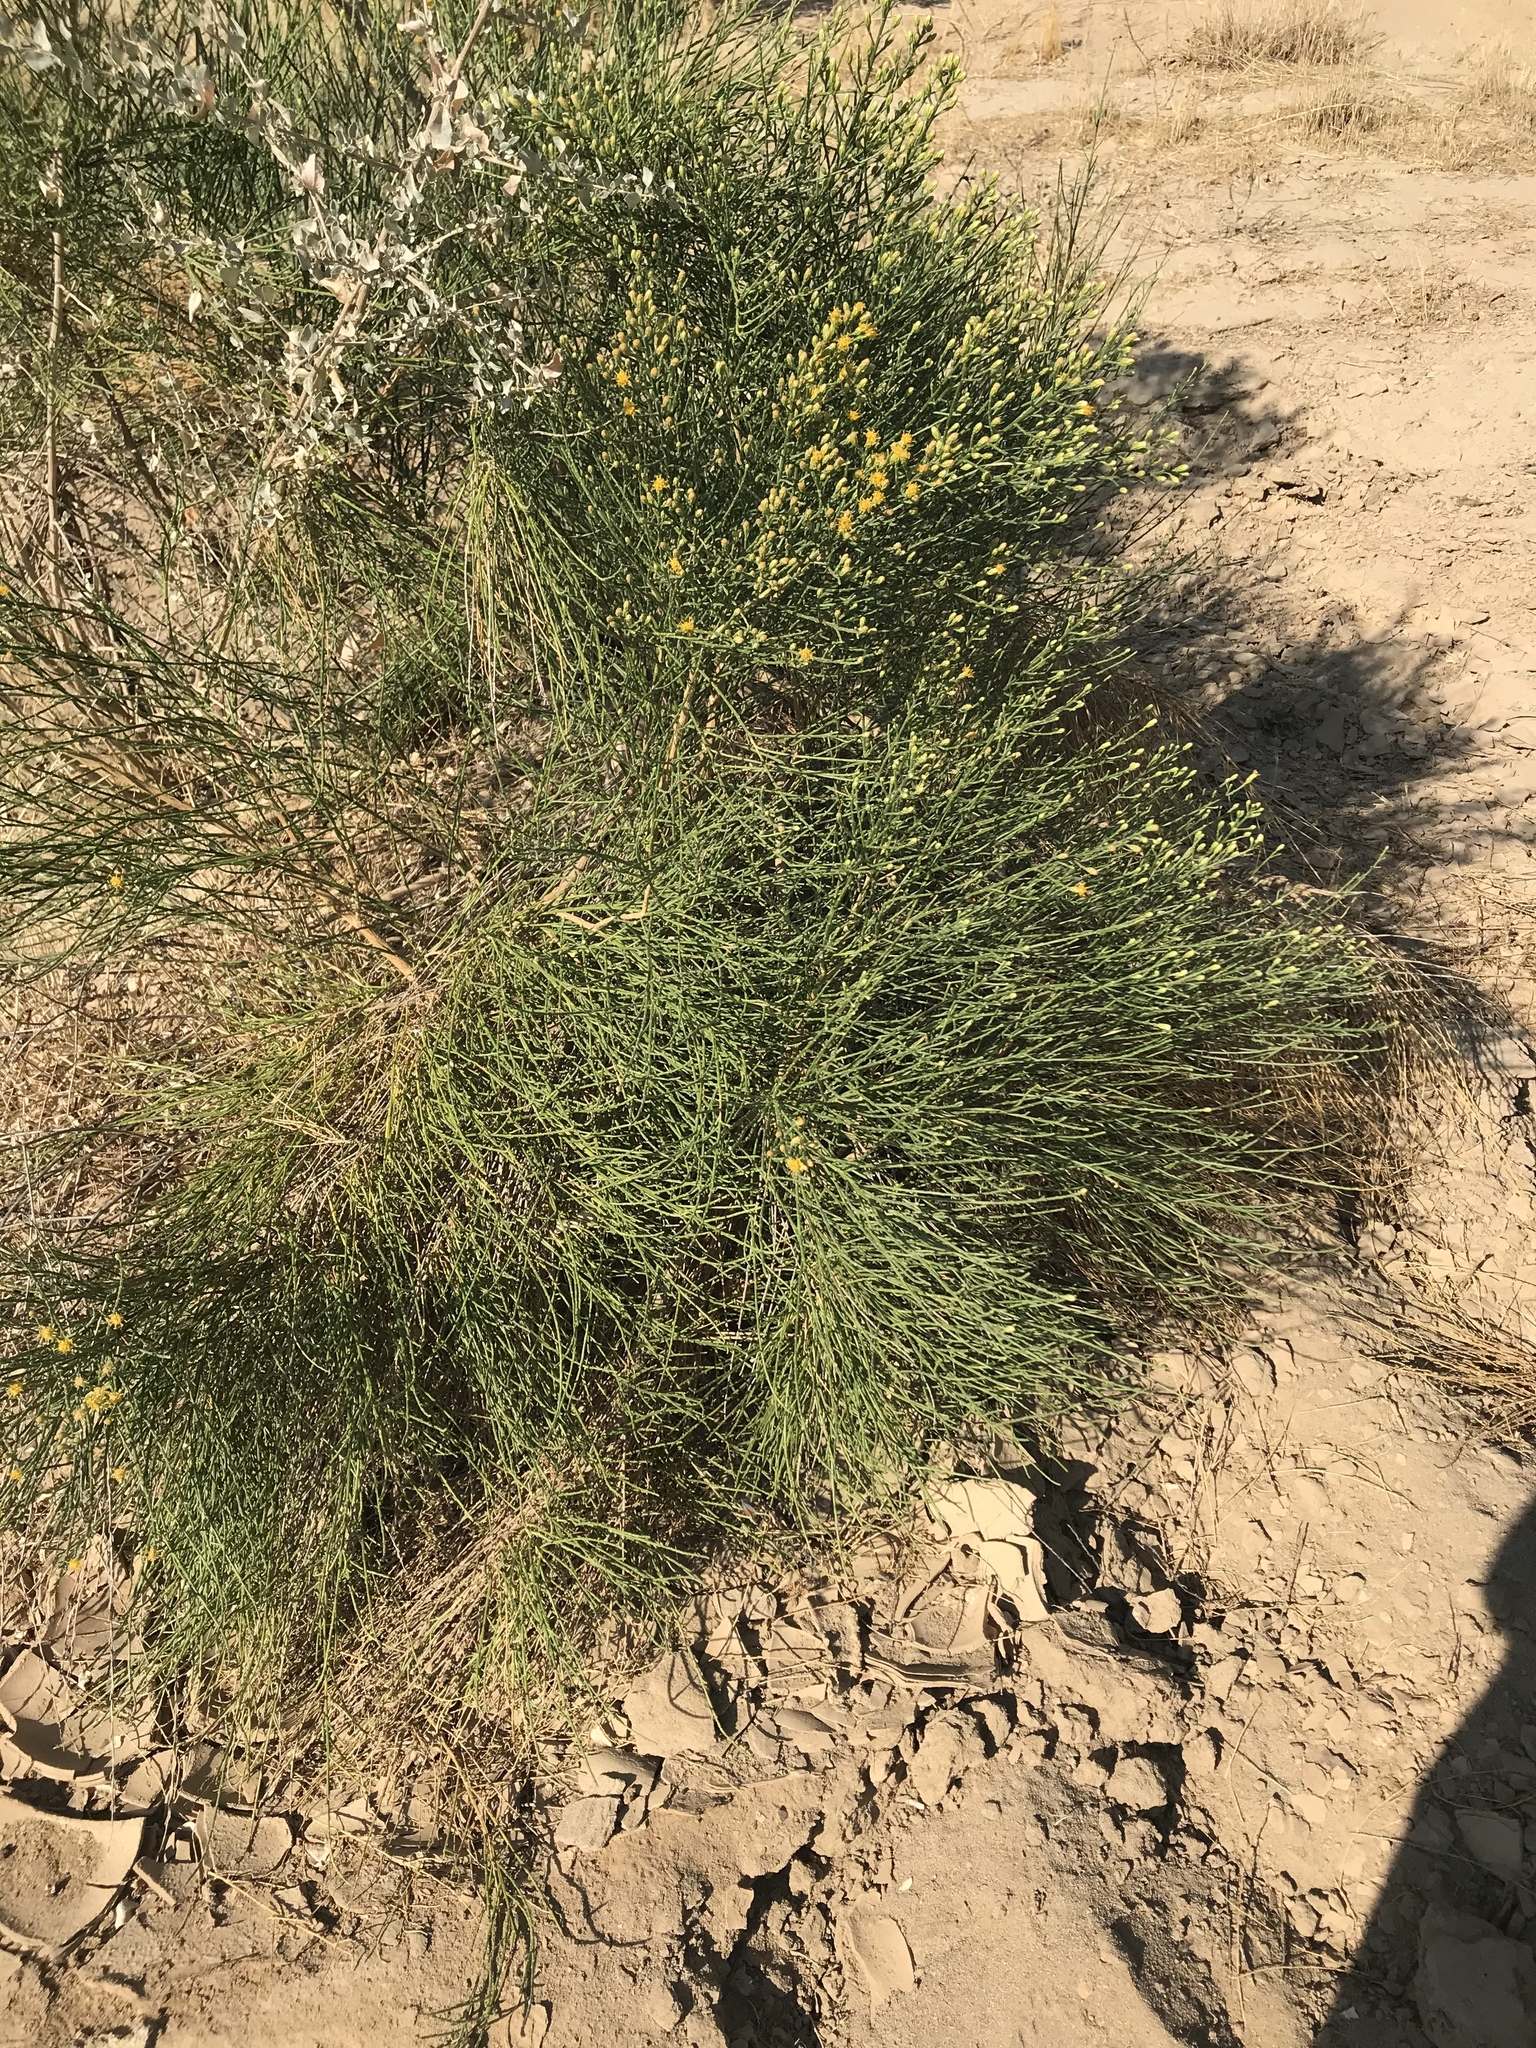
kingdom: Plantae
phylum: Tracheophyta
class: Magnoliopsida
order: Asterales
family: Asteraceae
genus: Lepidospartum
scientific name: Lepidospartum squamatum
